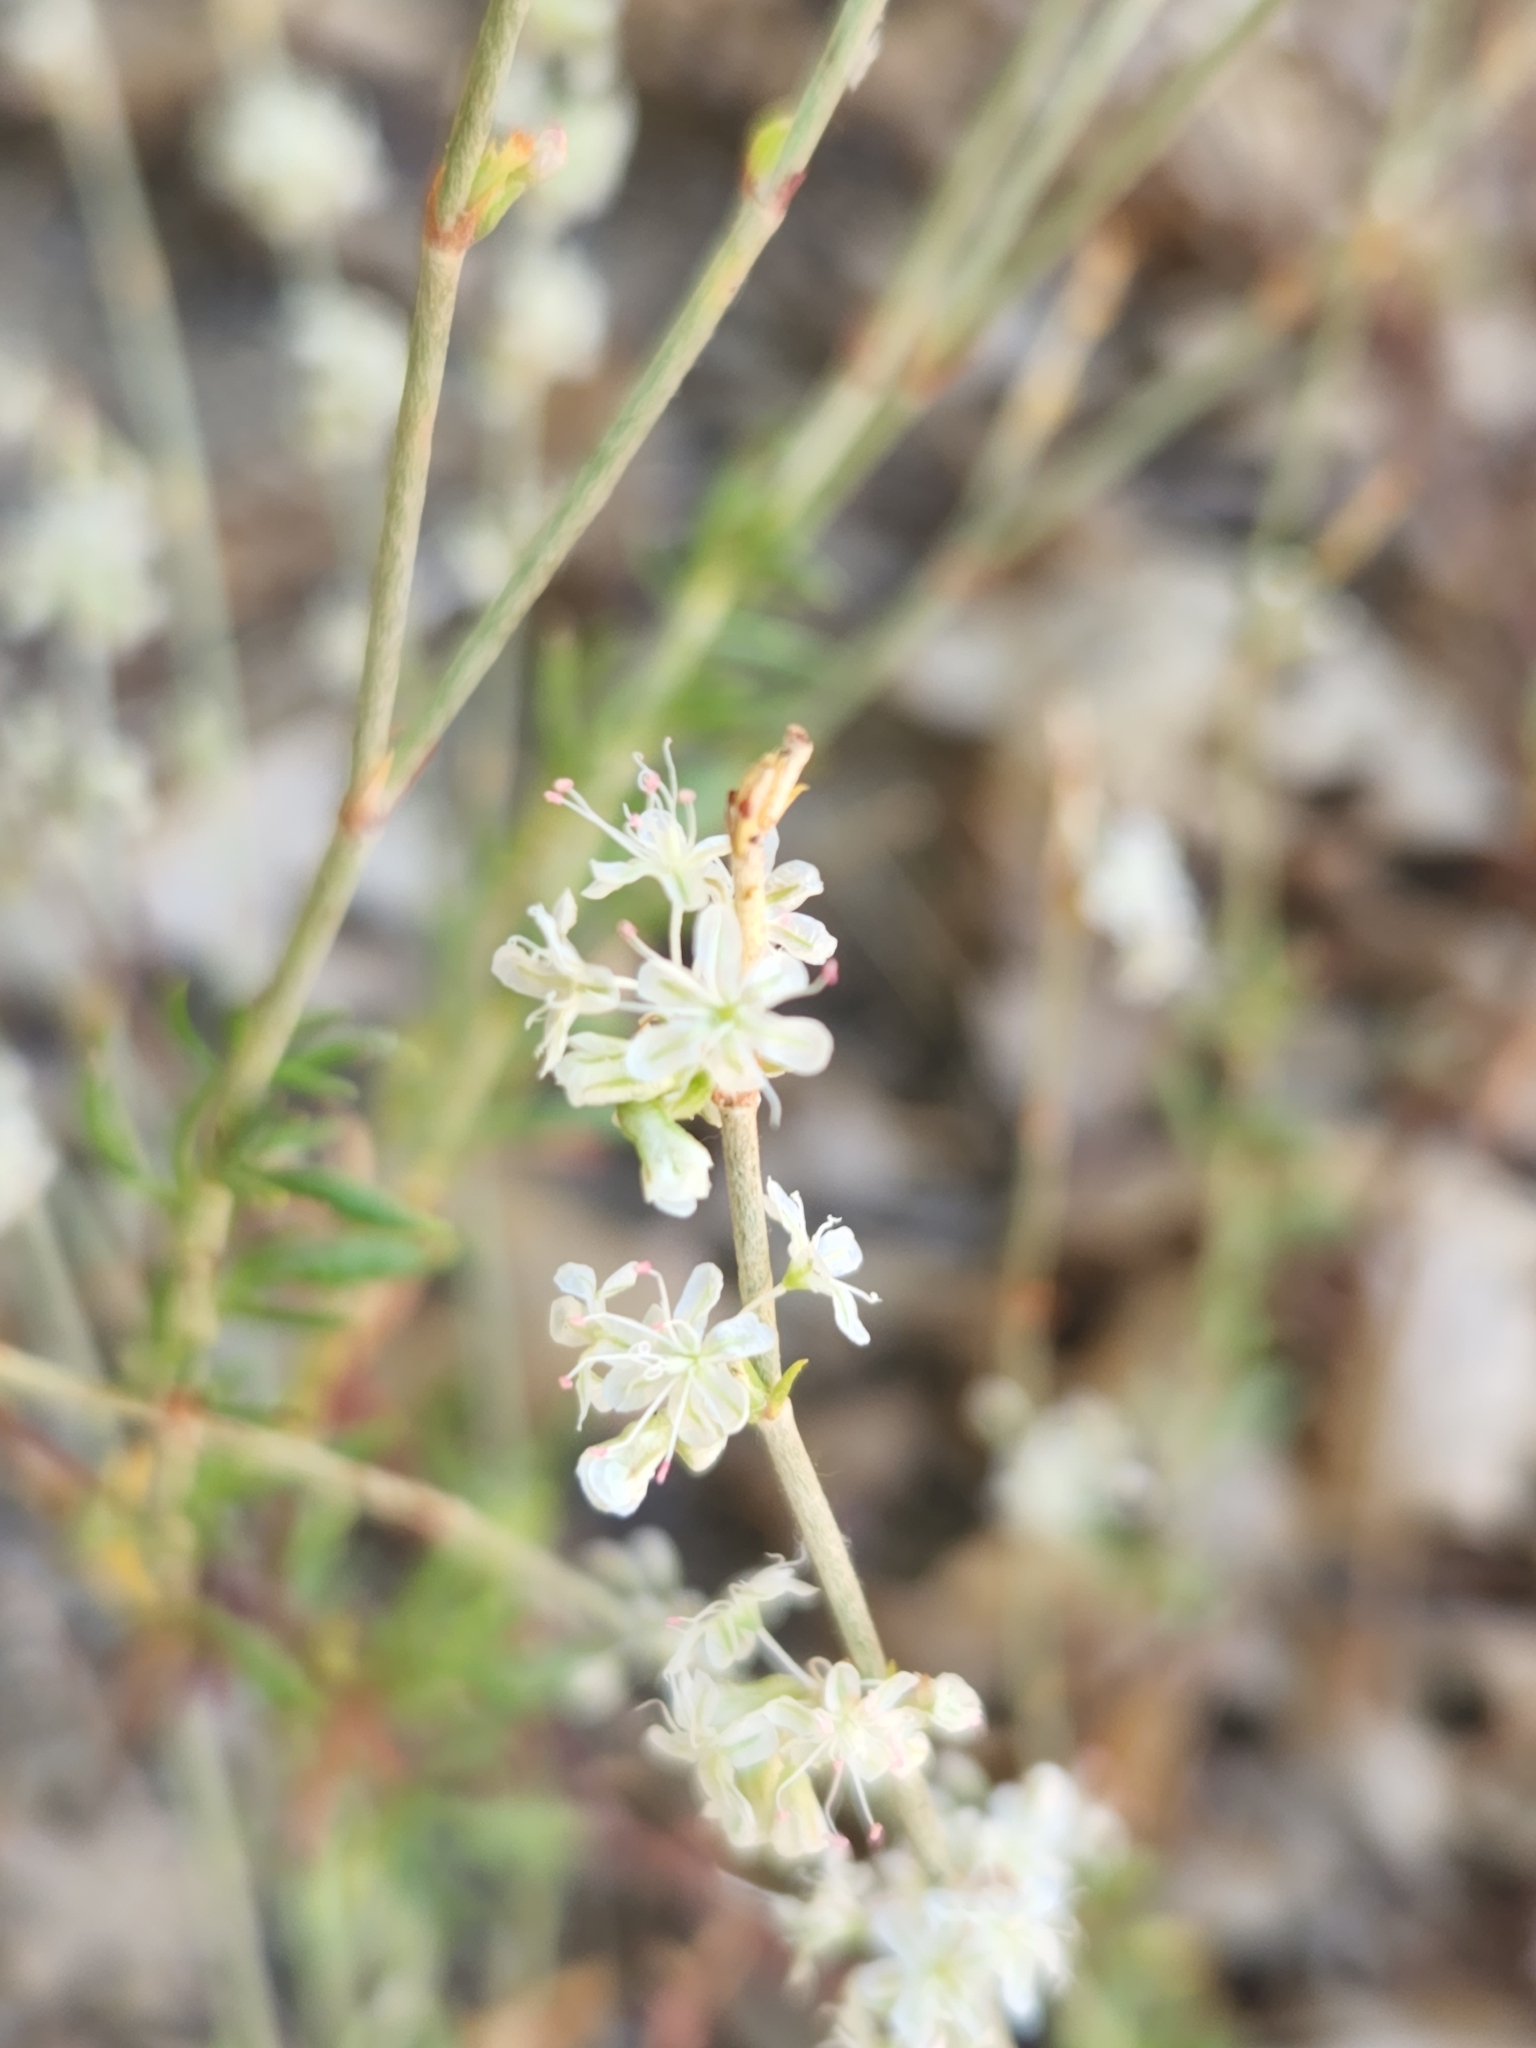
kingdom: Plantae
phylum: Tracheophyta
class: Magnoliopsida
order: Caryophyllales
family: Polygonaceae
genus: Eriogonum
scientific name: Eriogonum wrightii
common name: Bastard-sage
